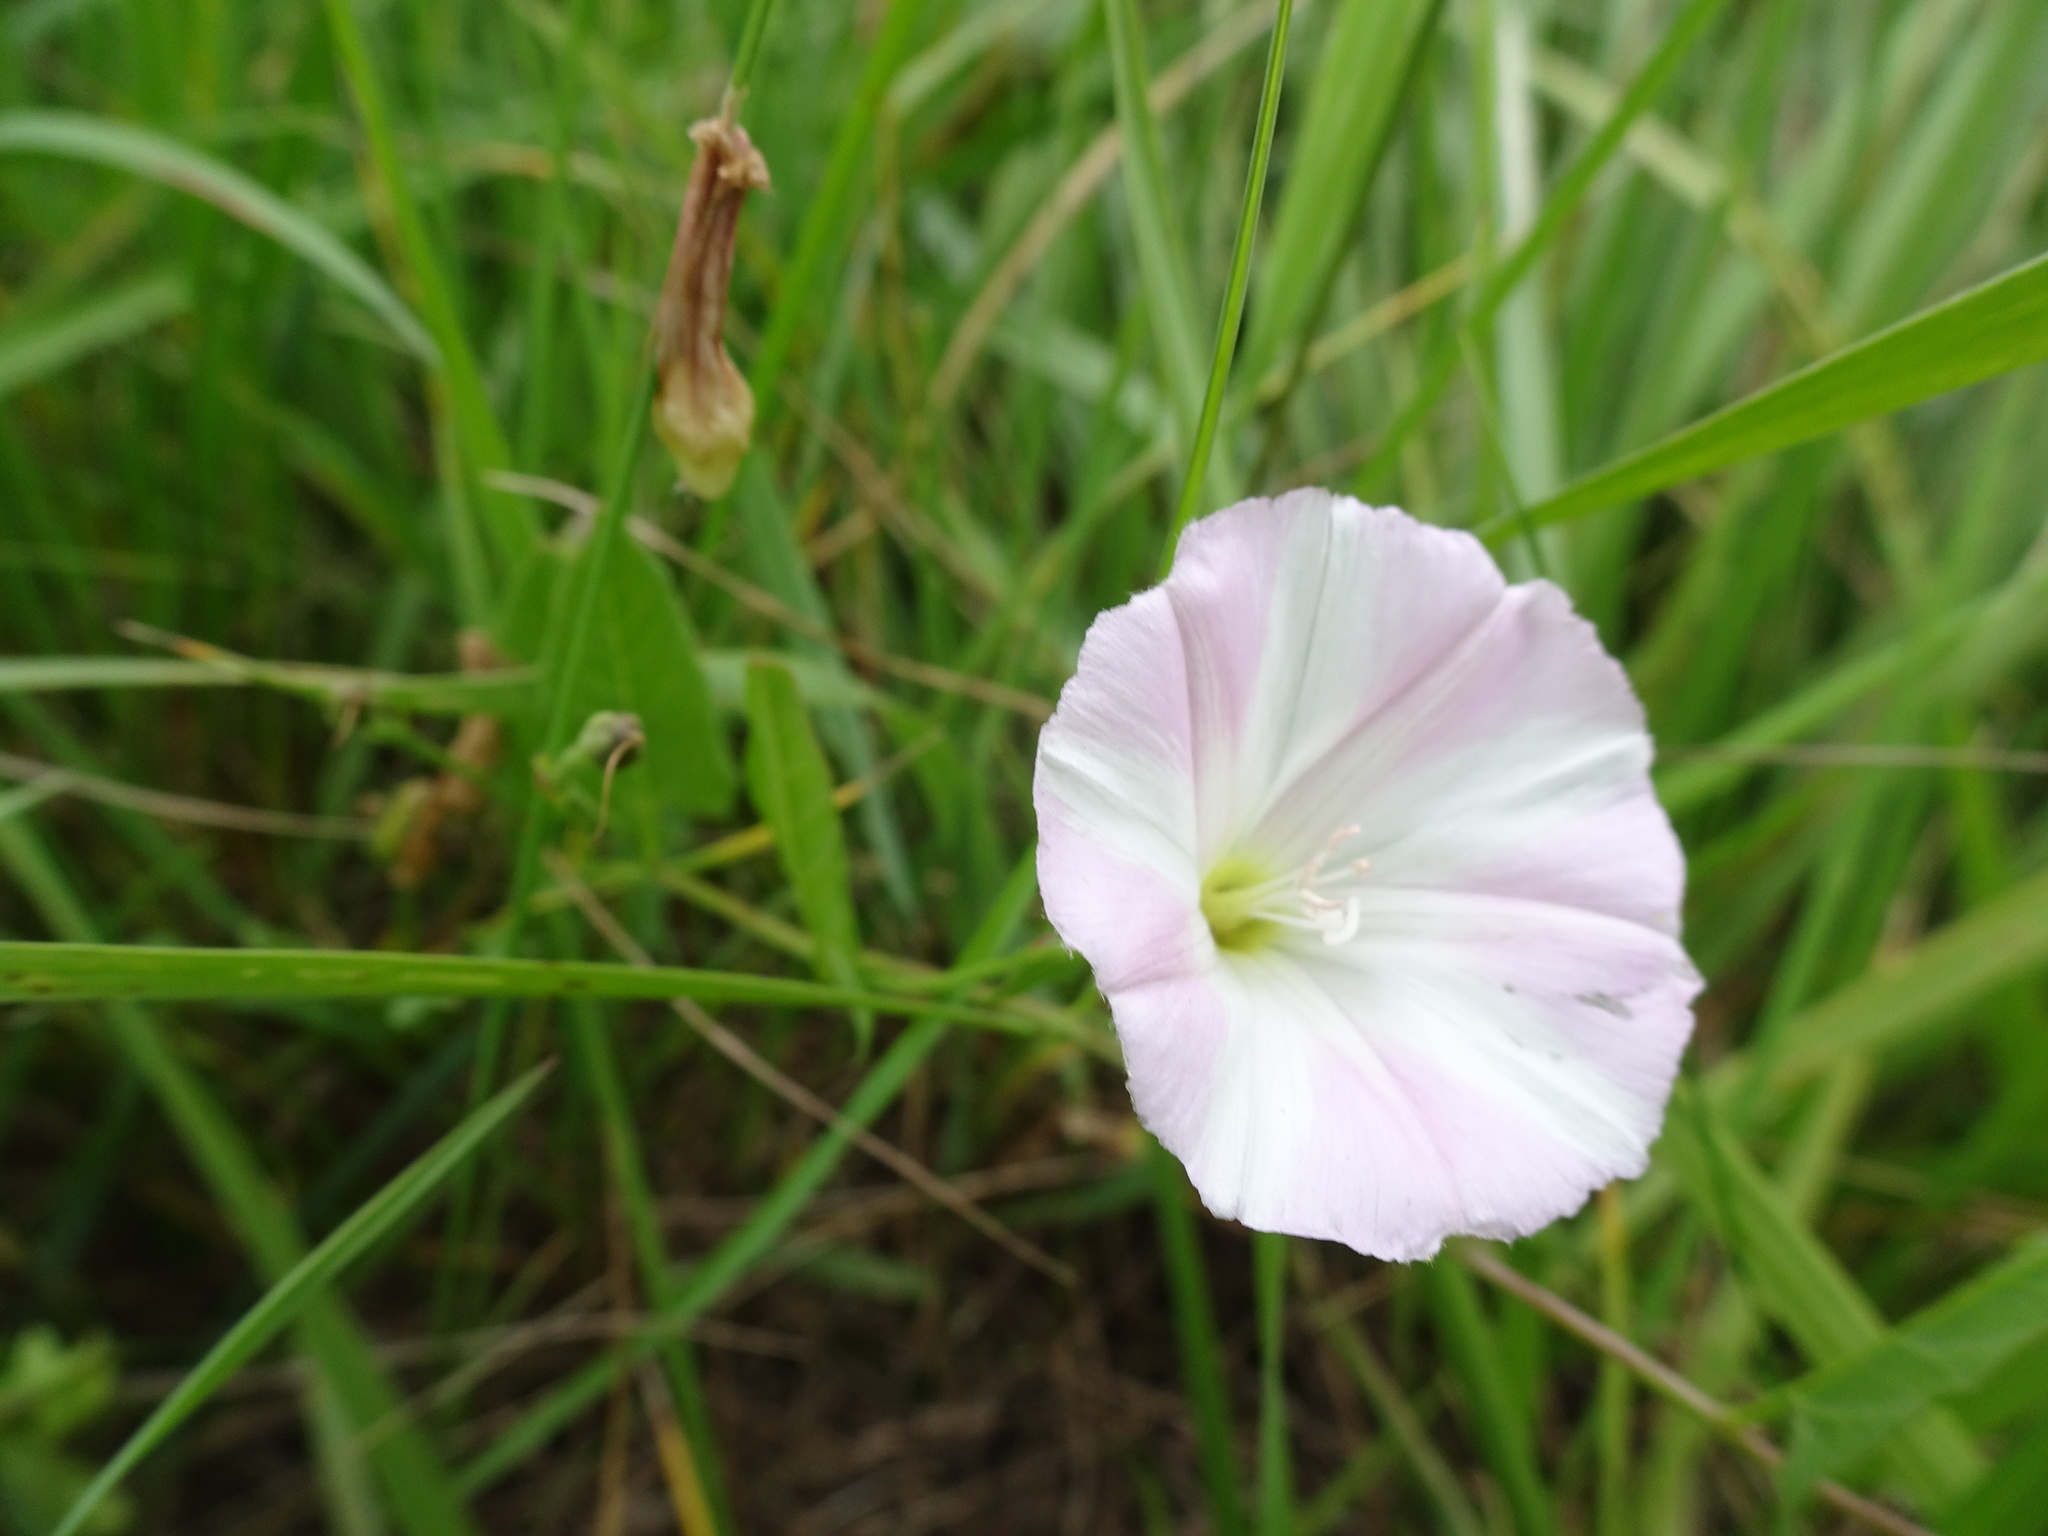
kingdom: Plantae
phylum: Tracheophyta
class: Magnoliopsida
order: Solanales
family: Convolvulaceae
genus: Convolvulus
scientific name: Convolvulus arvensis
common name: Field bindweed
